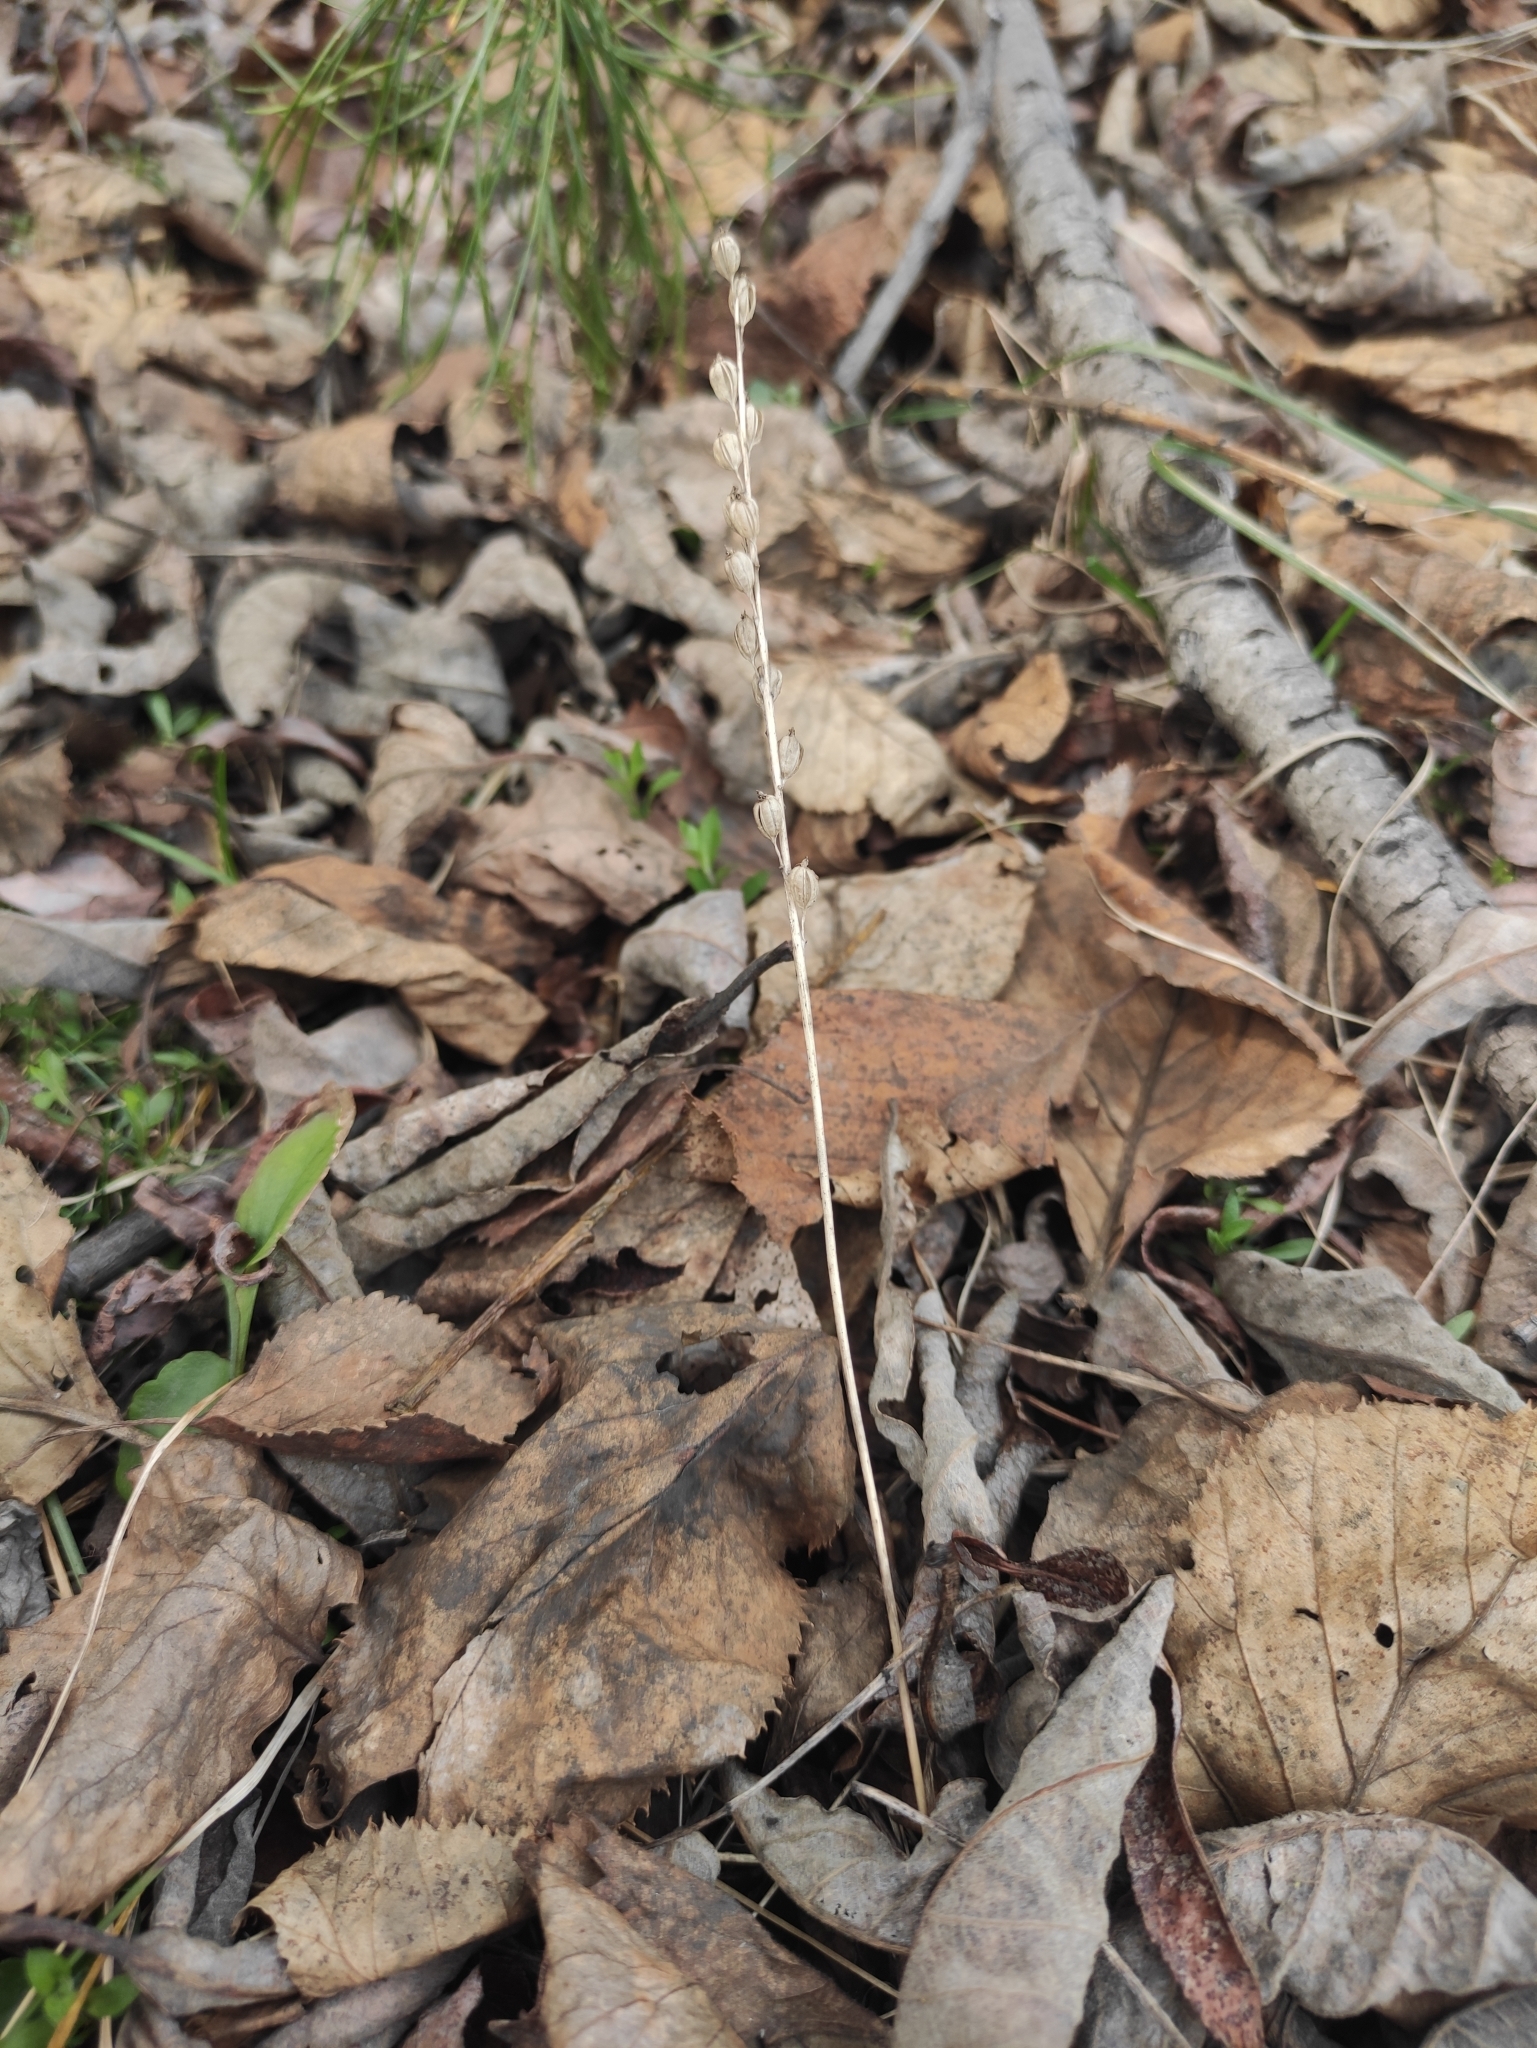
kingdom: Plantae
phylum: Tracheophyta
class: Liliopsida
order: Asparagales
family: Orchidaceae
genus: Malaxis
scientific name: Malaxis monophyllos
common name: White adder's-mouth
